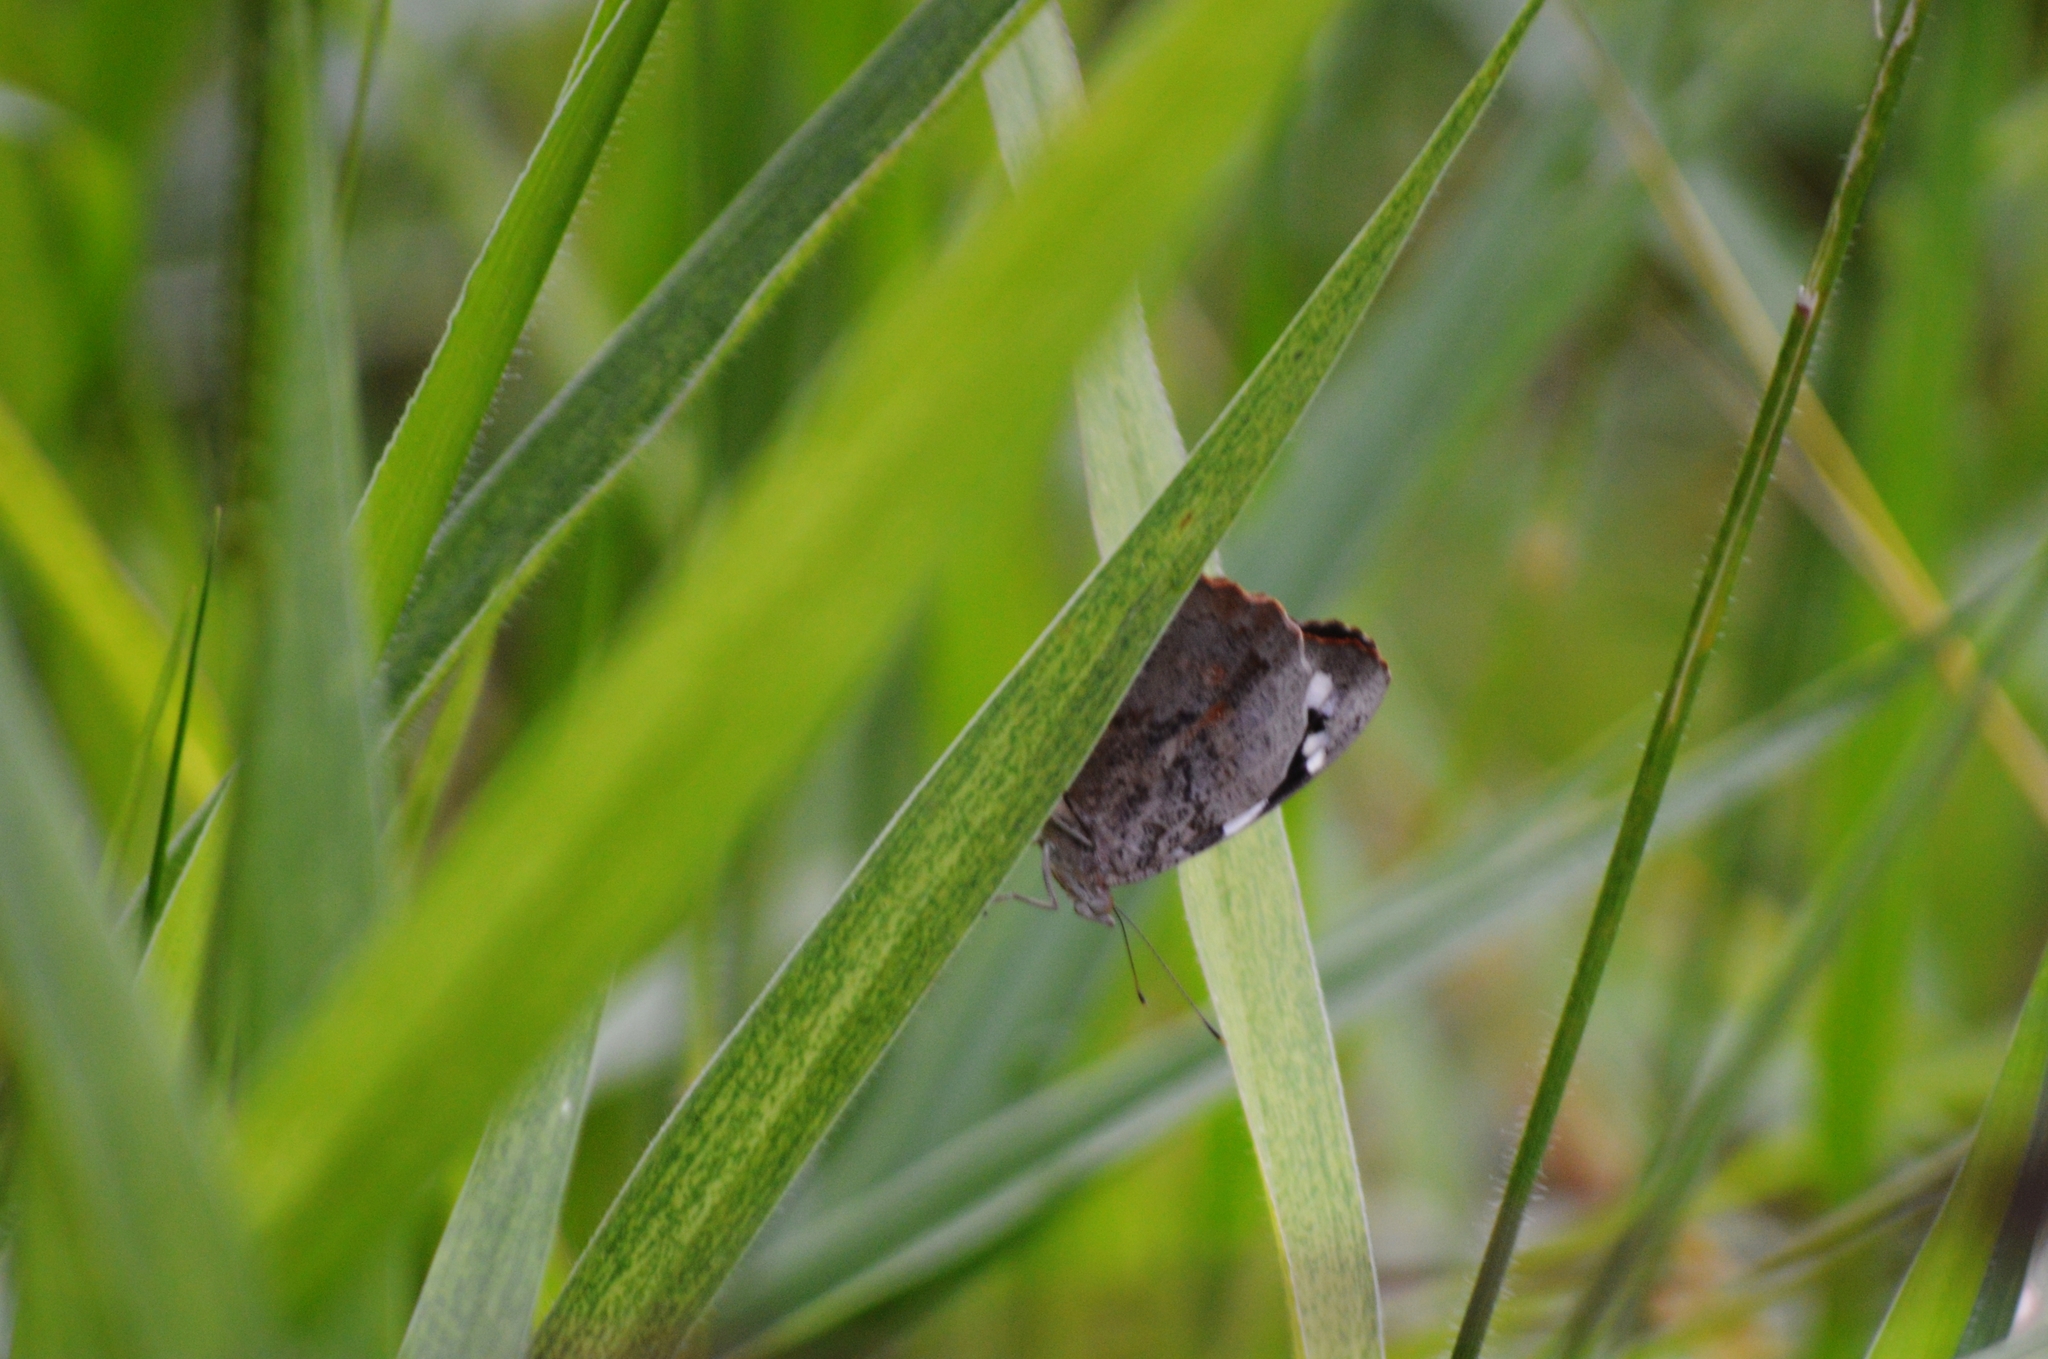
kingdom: Animalia
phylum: Arthropoda
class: Insecta
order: Lepidoptera
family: Nymphalidae
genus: Eunica
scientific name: Eunica eburnea
